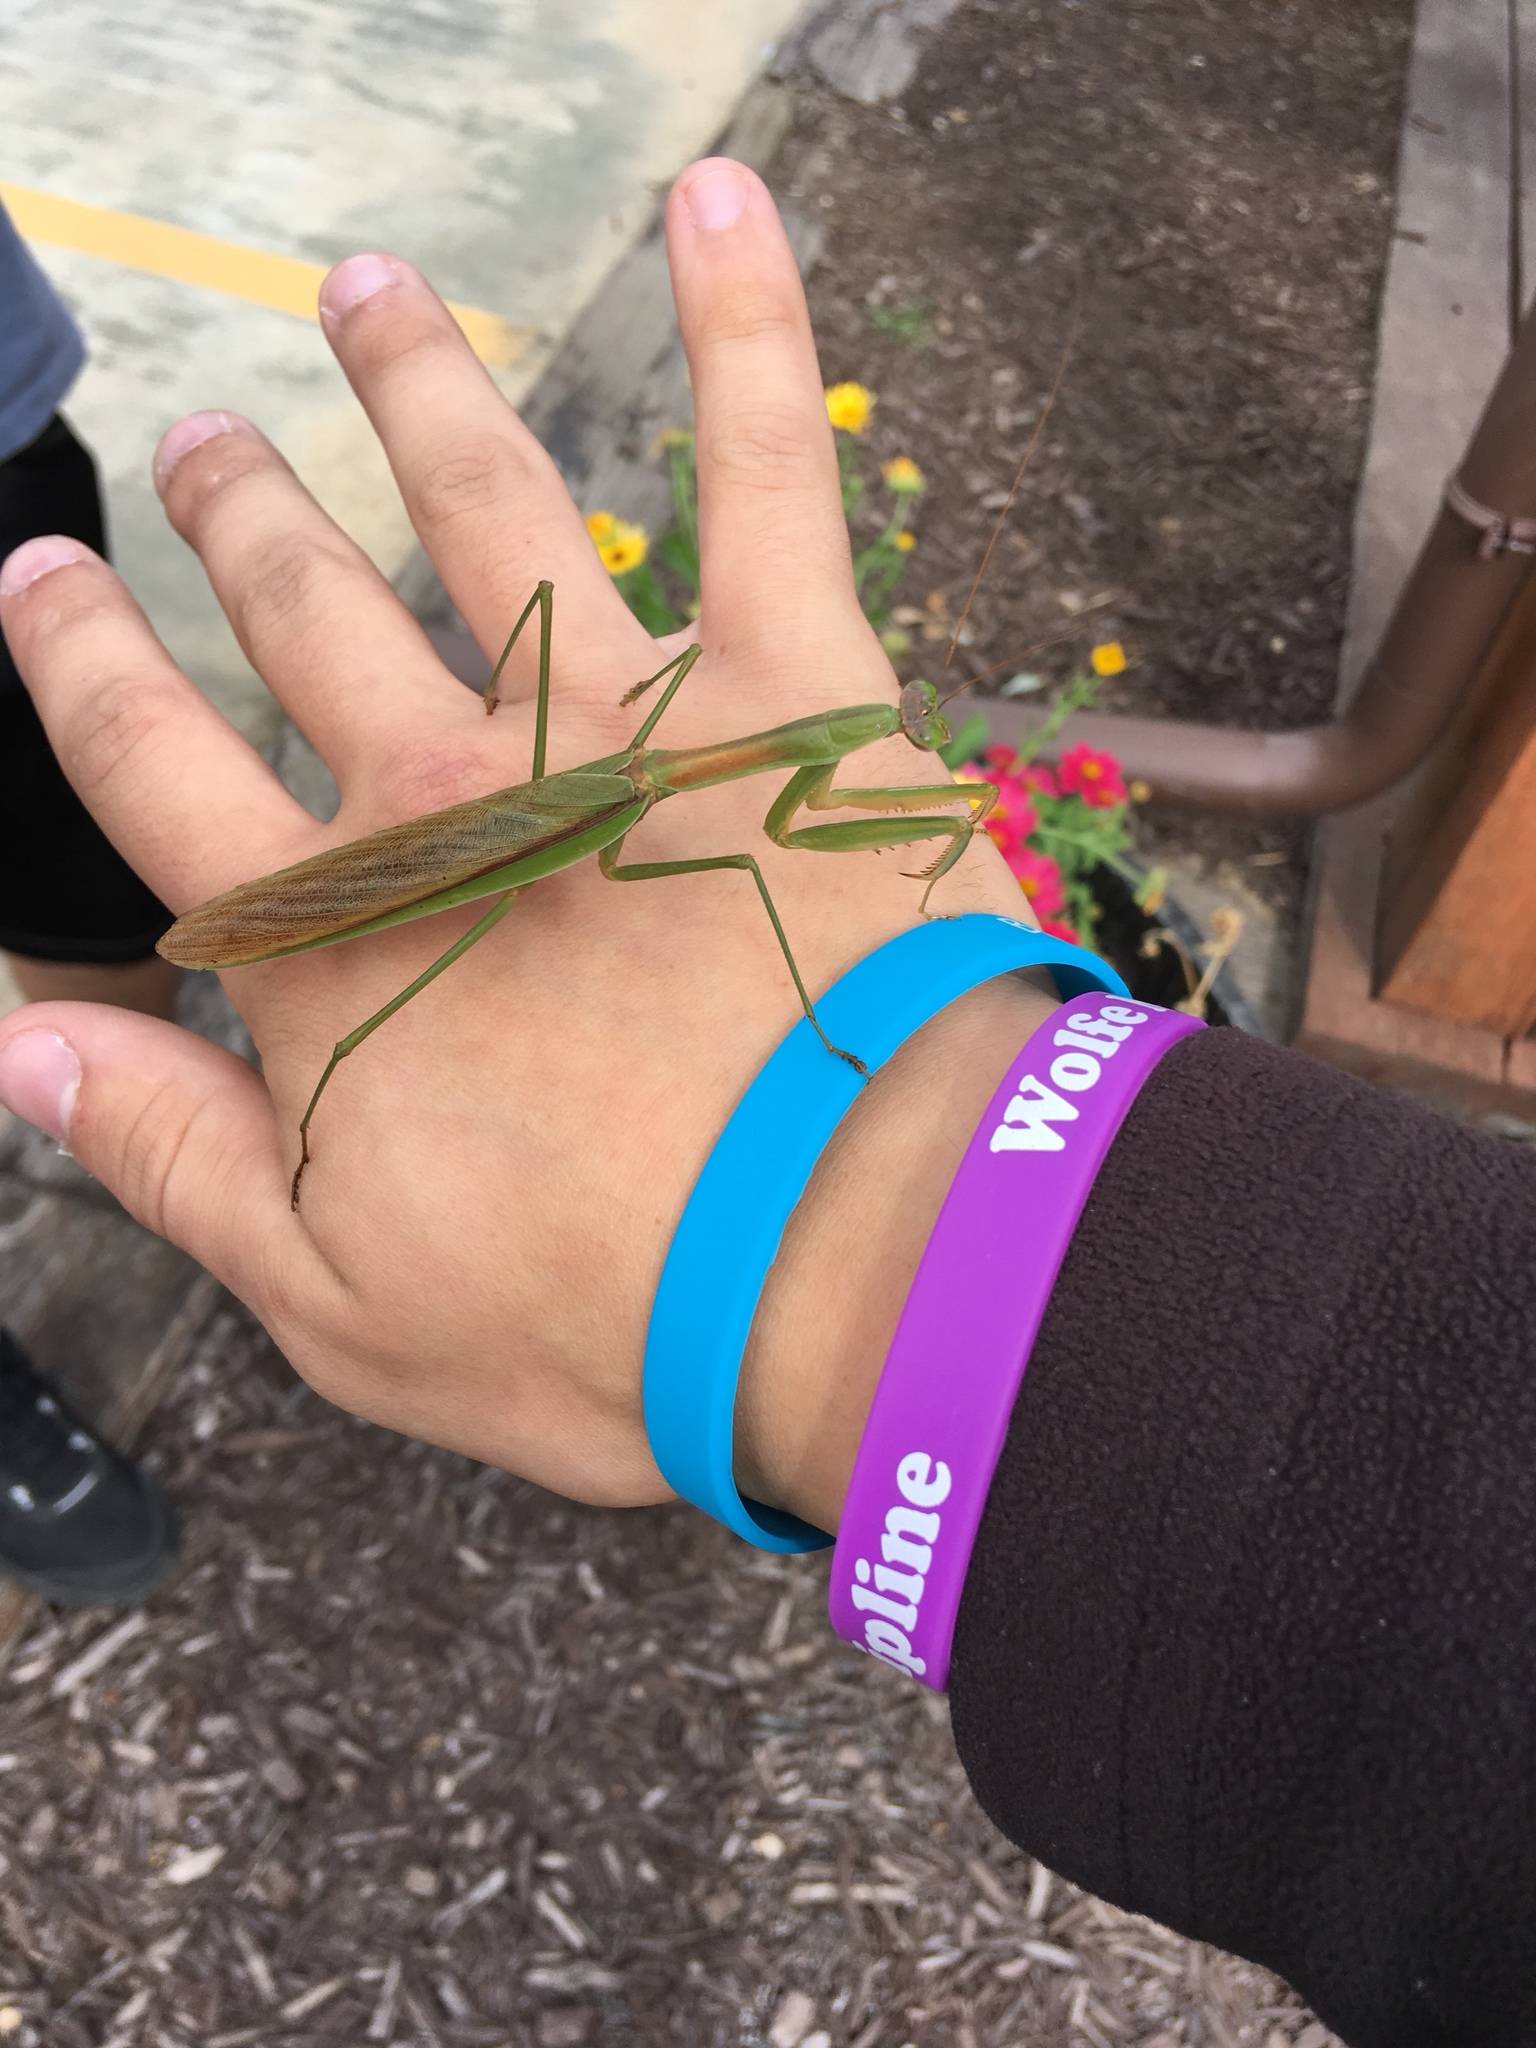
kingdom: Animalia
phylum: Arthropoda
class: Insecta
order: Mantodea
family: Mantidae
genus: Tenodera
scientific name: Tenodera sinensis
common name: Chinese mantis
